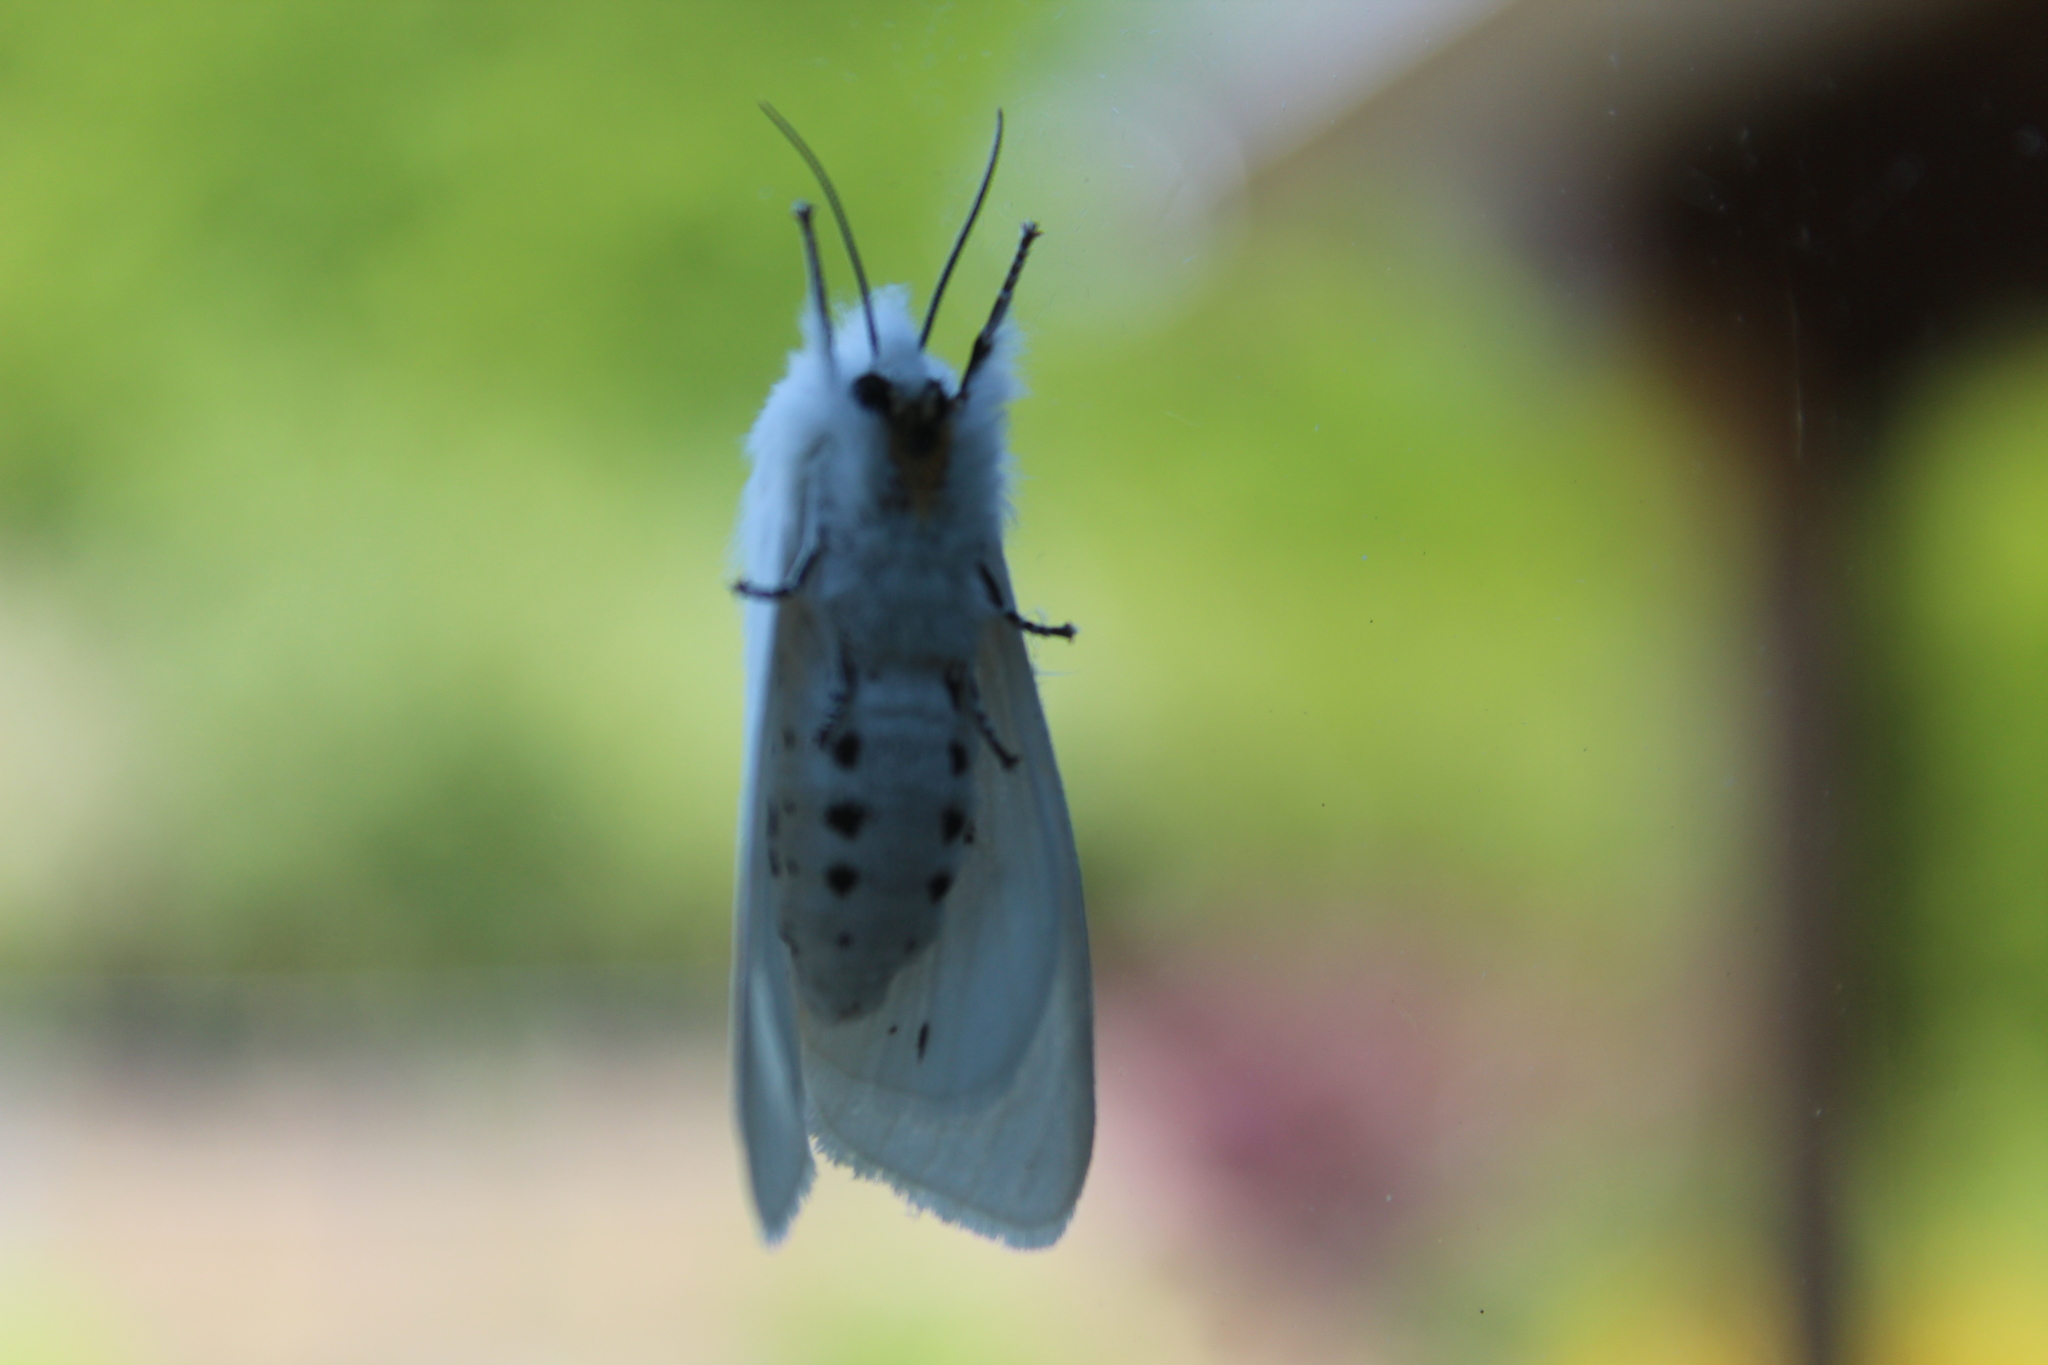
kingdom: Animalia
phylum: Arthropoda
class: Insecta
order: Lepidoptera
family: Erebidae
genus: Spilosoma
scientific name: Spilosoma virginica
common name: Virginia tiger moth
